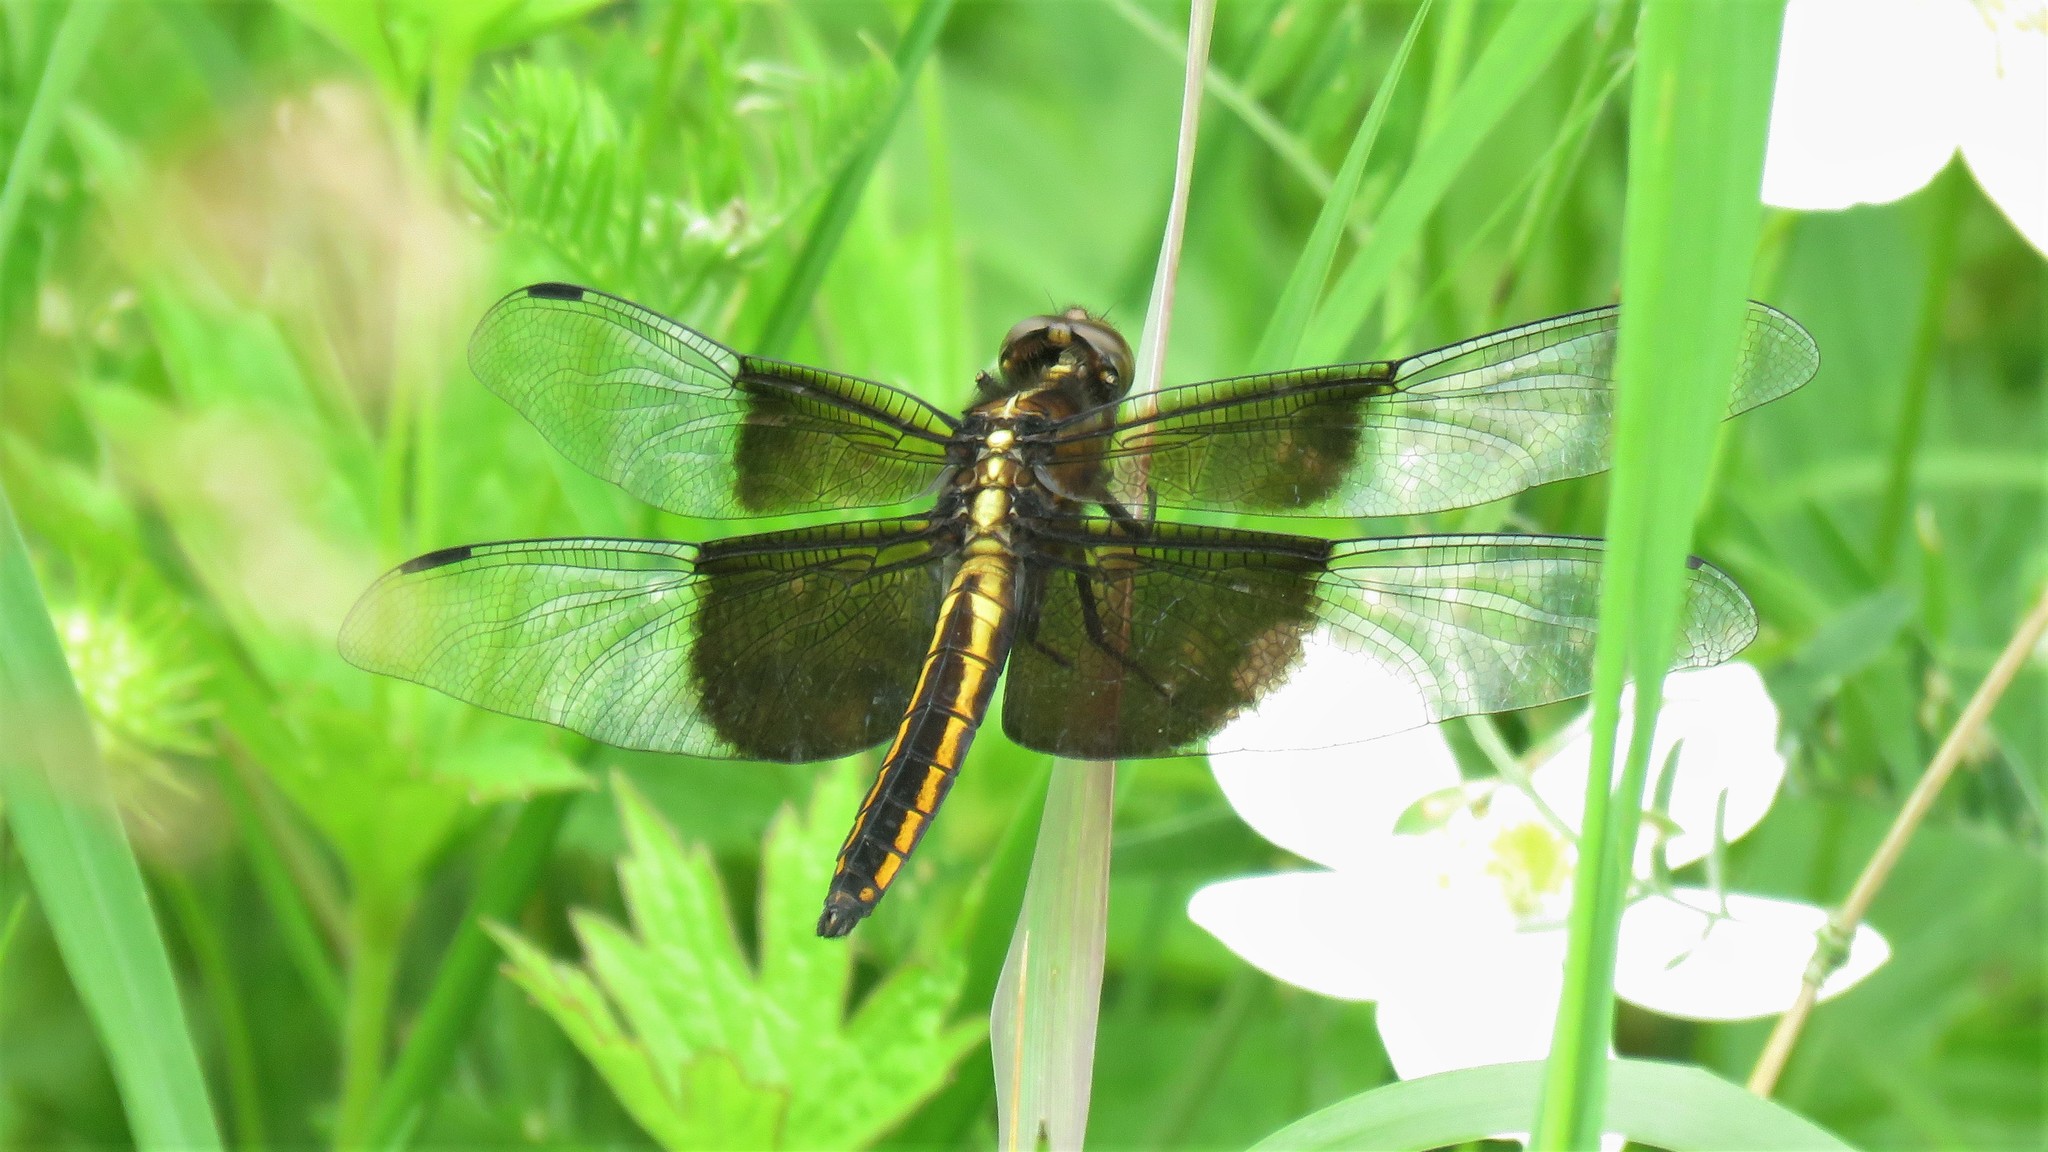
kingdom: Animalia
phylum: Arthropoda
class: Insecta
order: Odonata
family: Libellulidae
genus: Libellula
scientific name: Libellula luctuosa
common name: Widow skimmer
